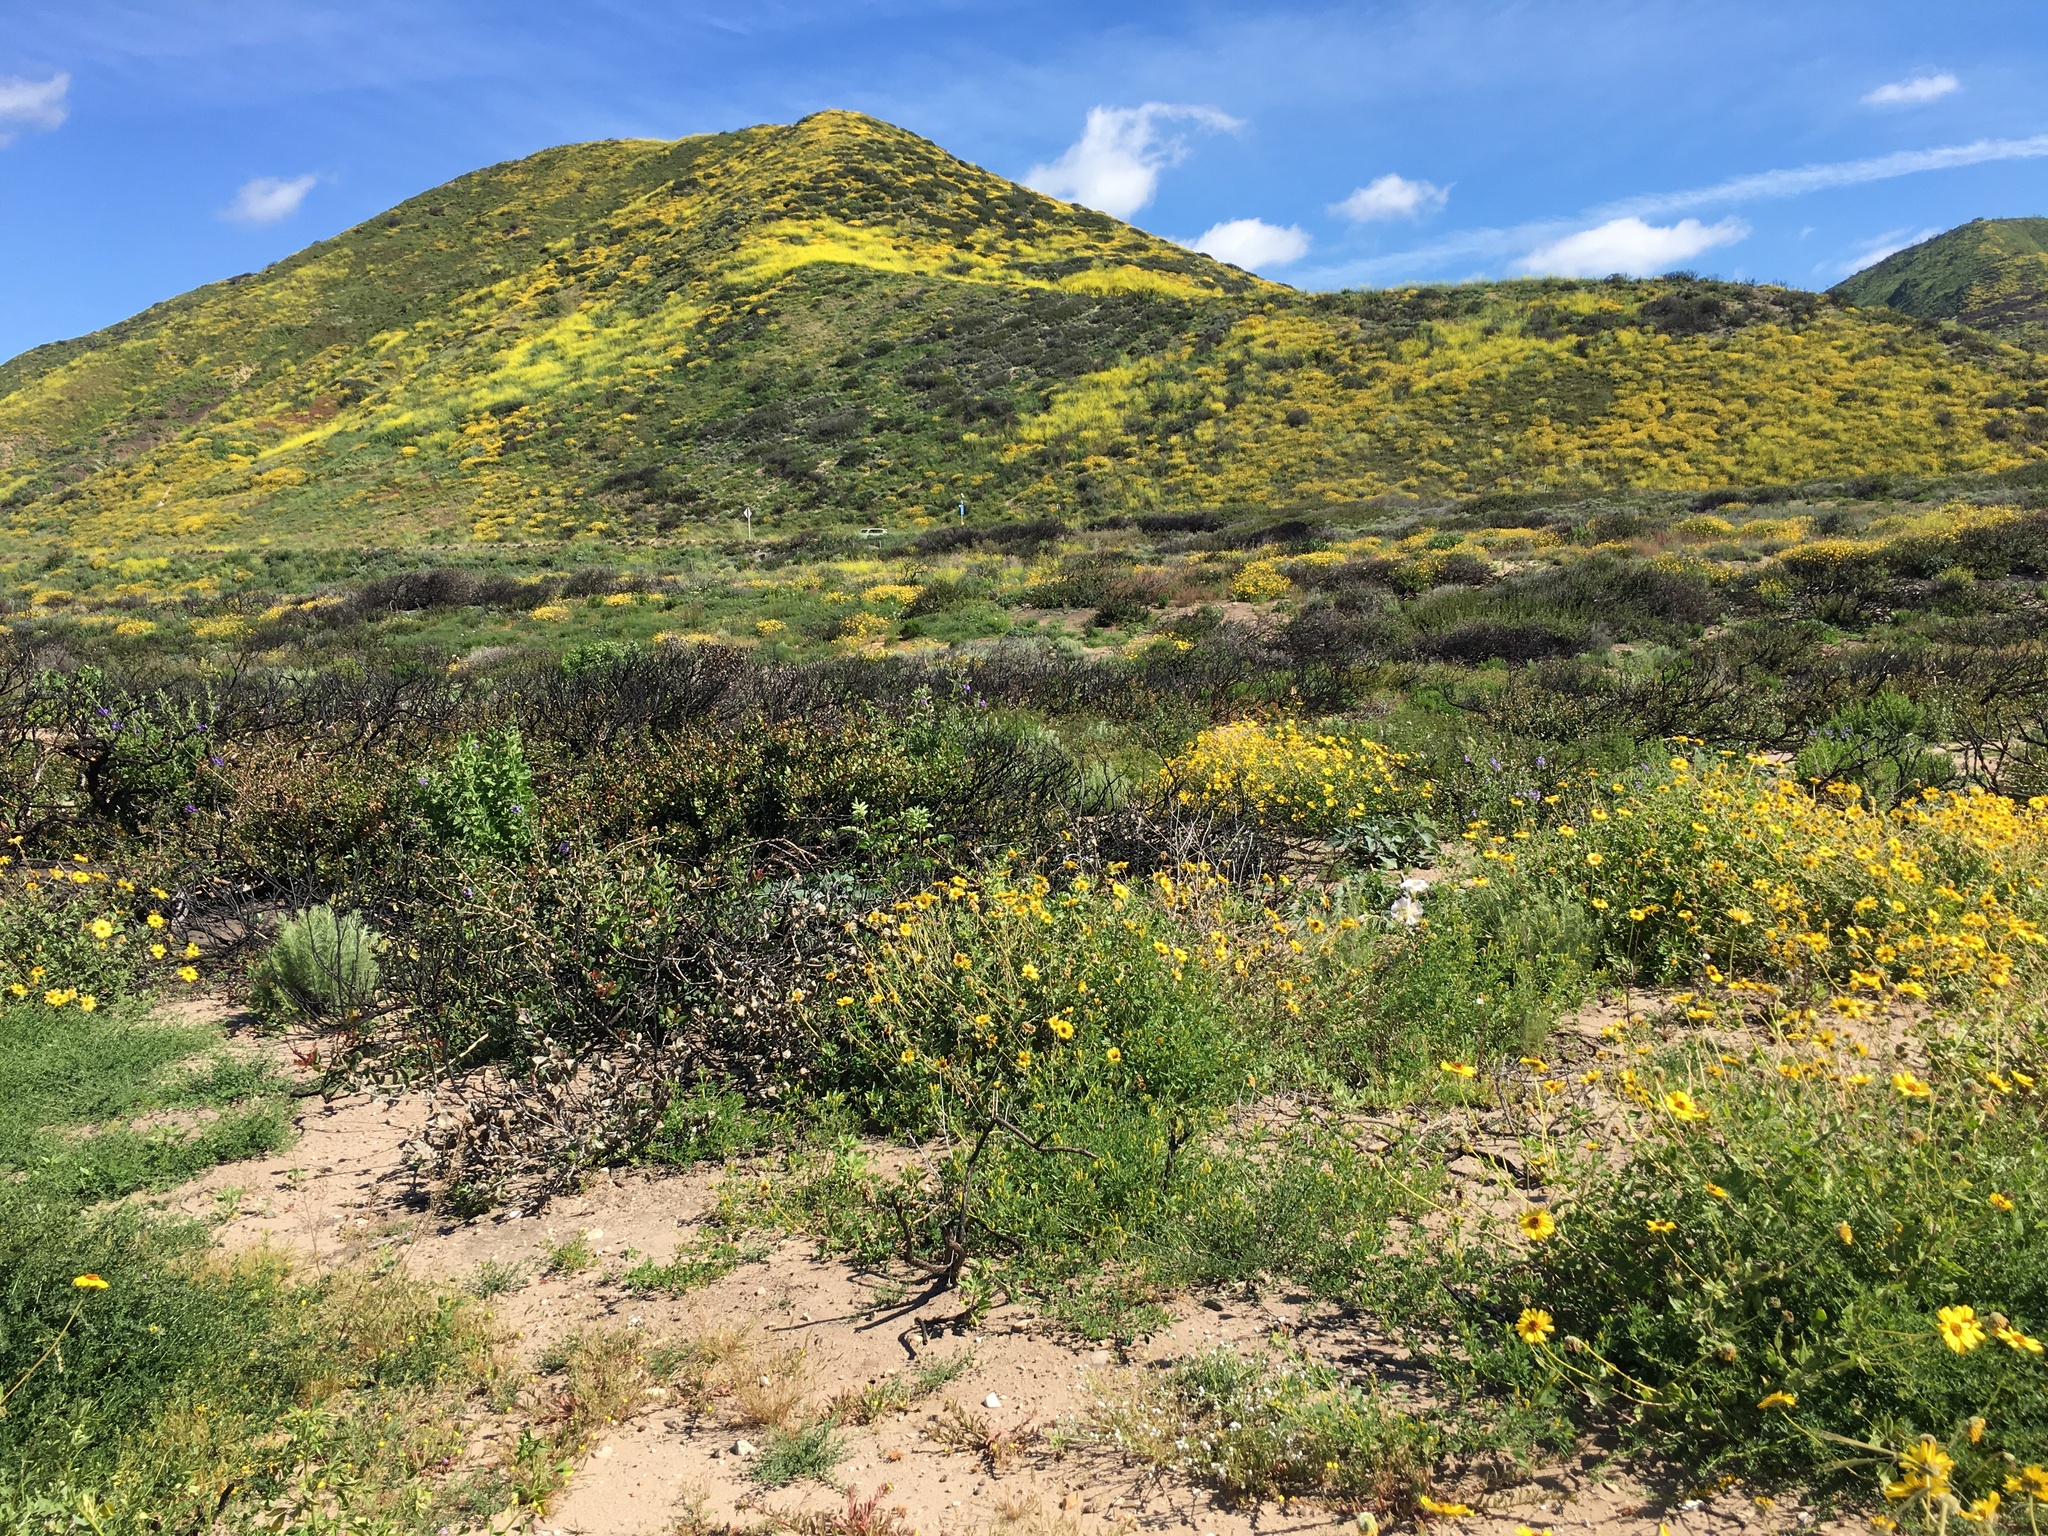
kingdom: Plantae
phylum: Tracheophyta
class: Magnoliopsida
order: Asterales
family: Asteraceae
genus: Encelia
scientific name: Encelia californica
